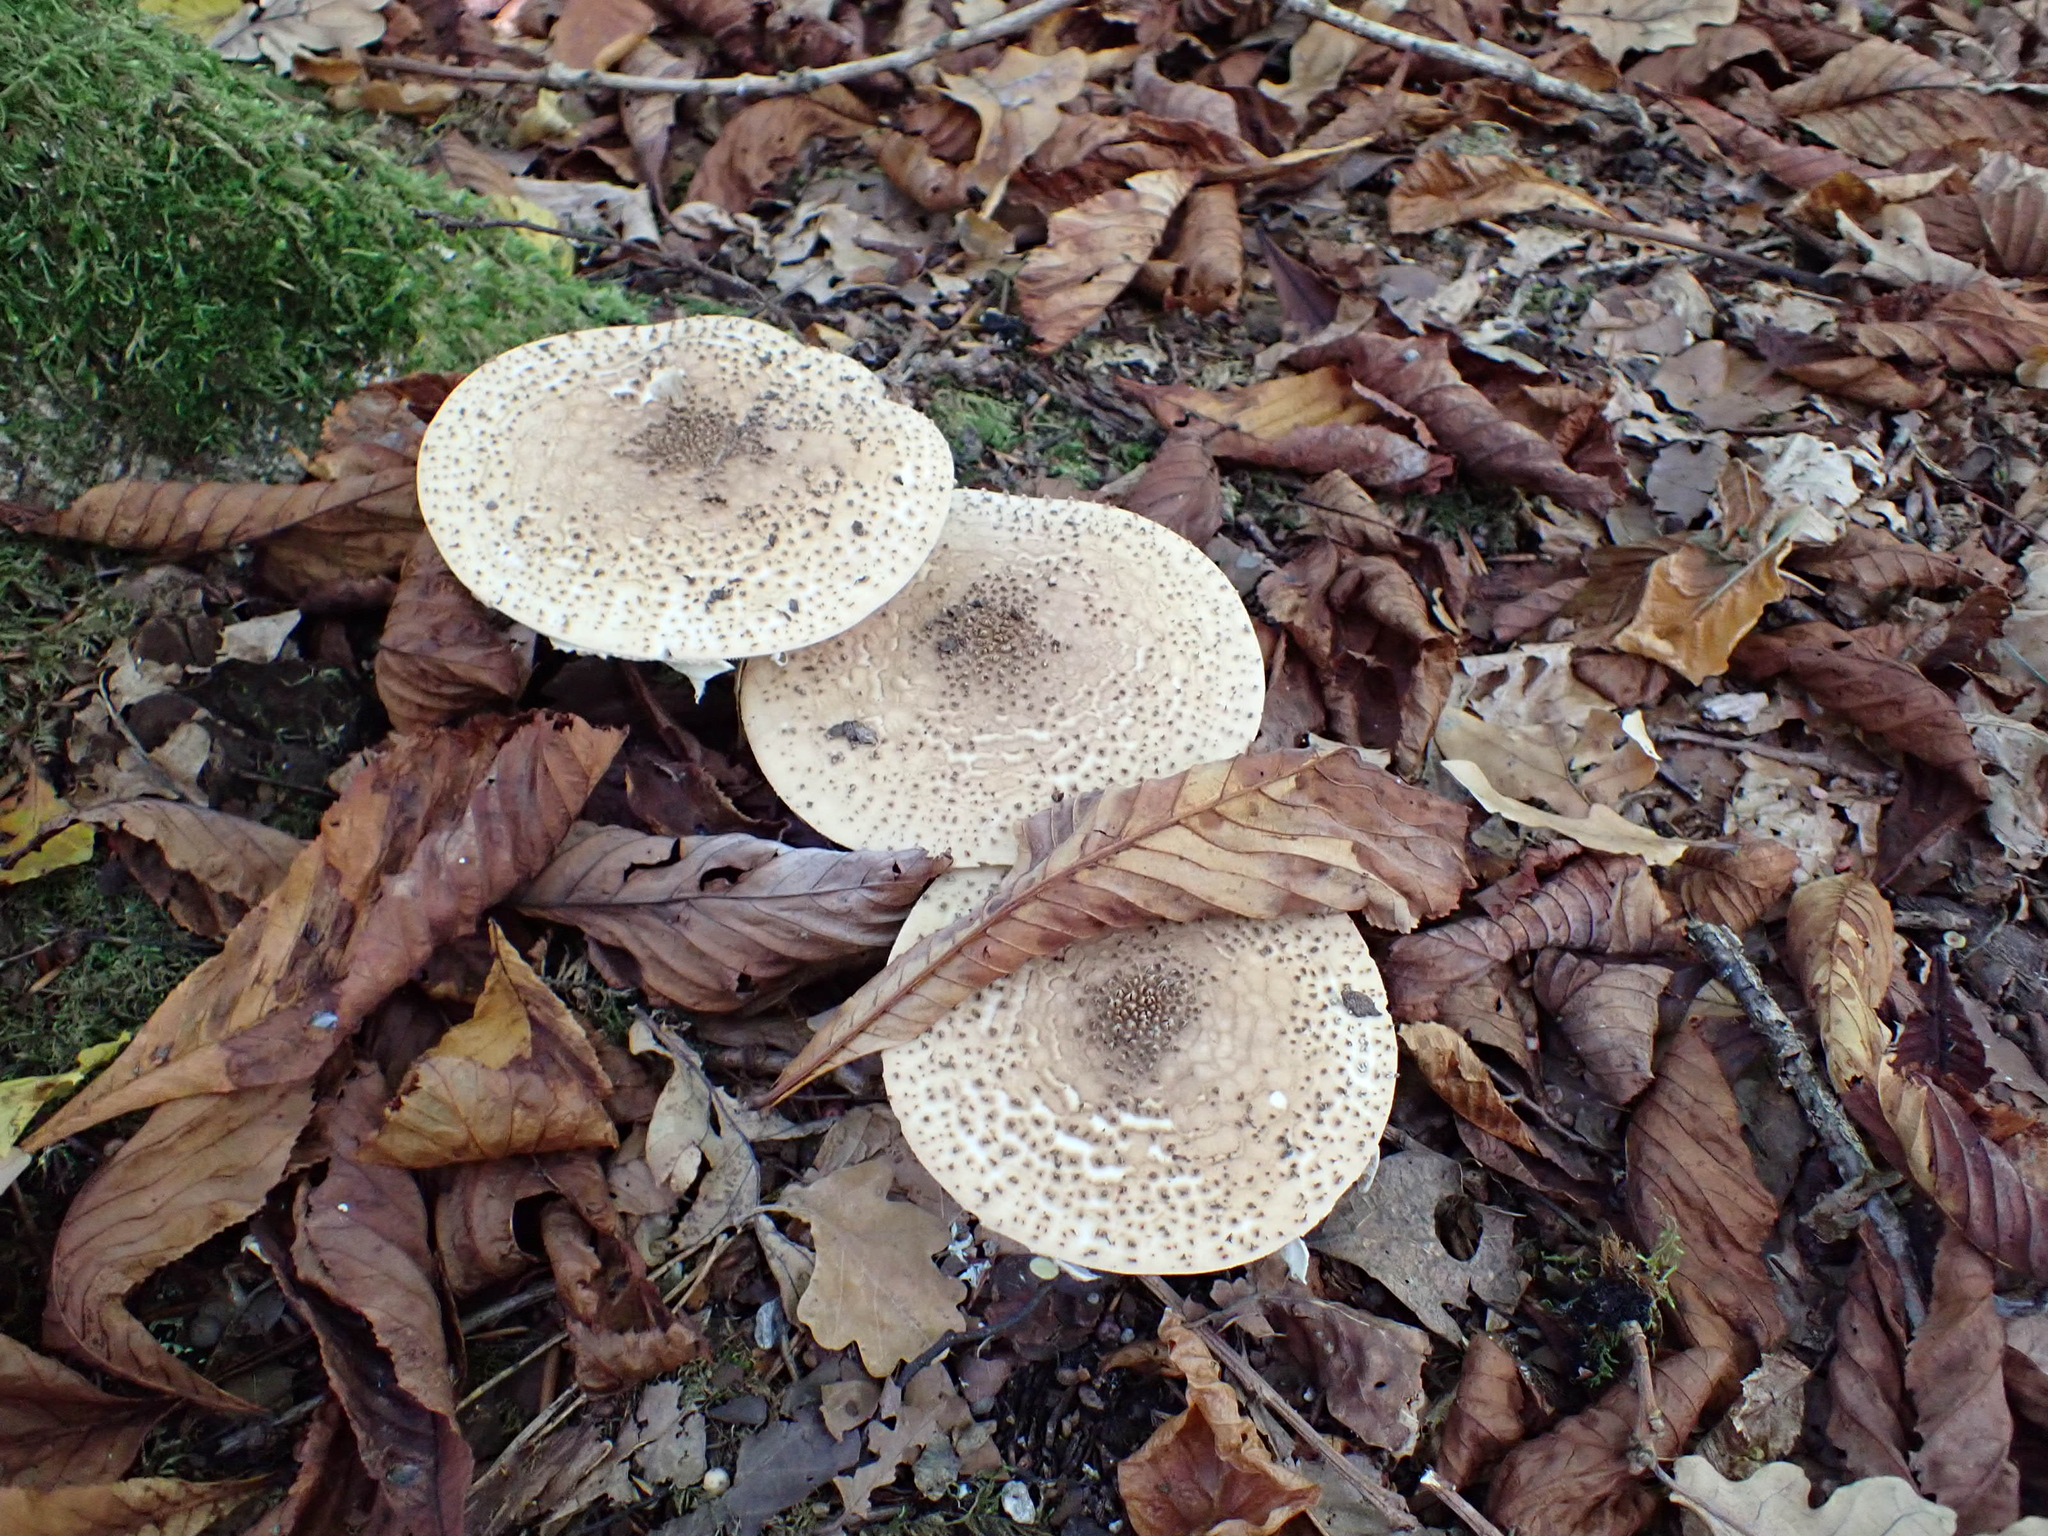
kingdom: Fungi
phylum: Basidiomycota
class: Agaricomycetes
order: Agaricales
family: Agaricaceae
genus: Echinoderma
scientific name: Echinoderma asperum
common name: Freckled dapperling
